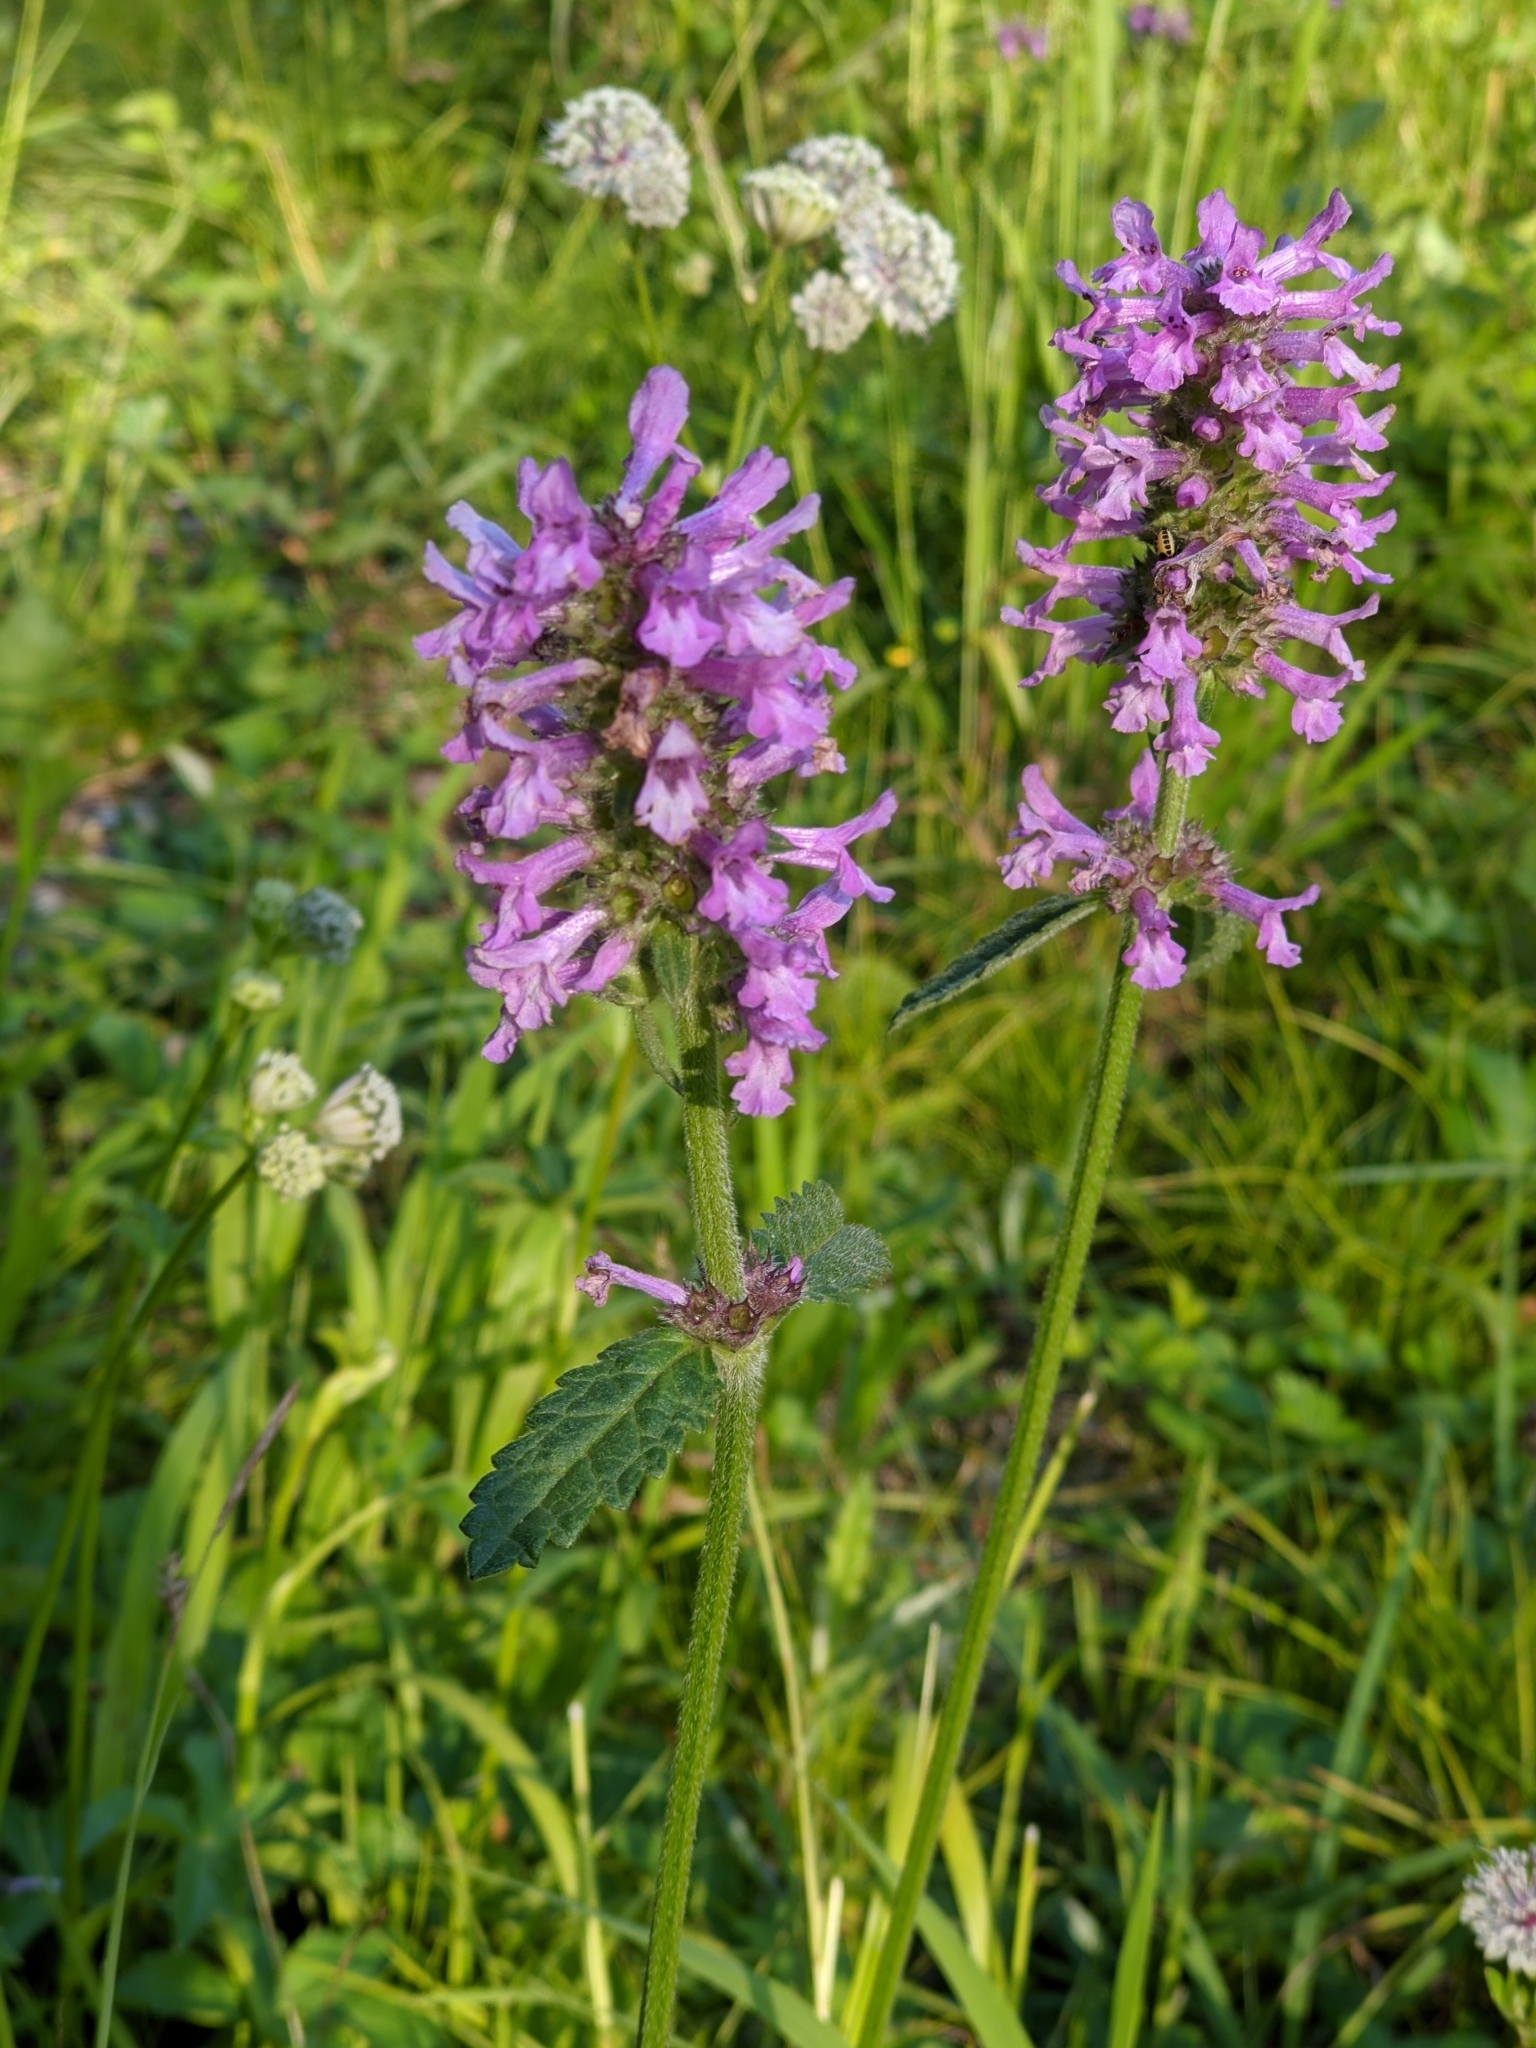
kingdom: Plantae
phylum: Tracheophyta
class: Magnoliopsida
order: Lamiales
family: Lamiaceae
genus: Betonica
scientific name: Betonica officinalis
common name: Bishop's-wort
